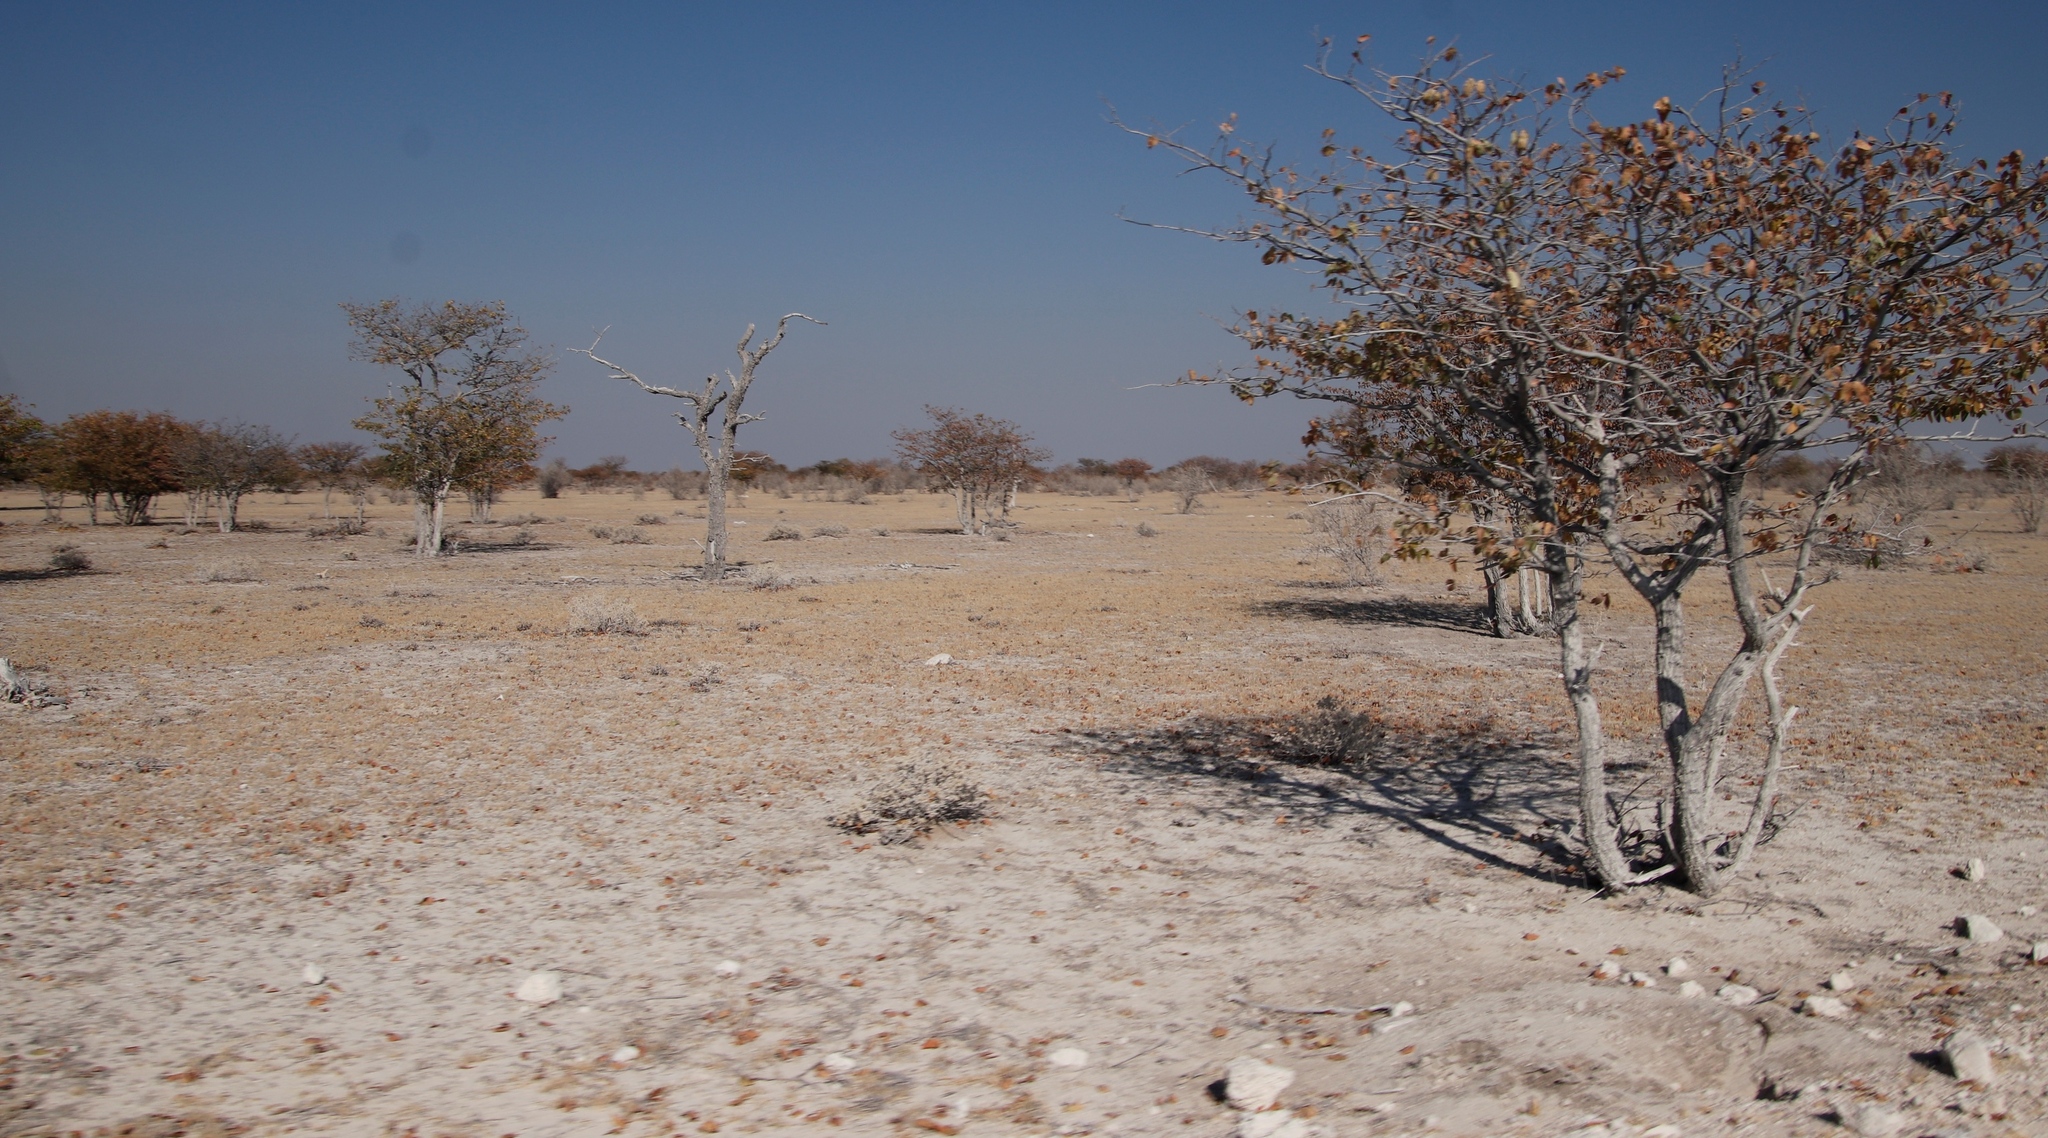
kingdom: Plantae
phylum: Tracheophyta
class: Magnoliopsida
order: Fabales
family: Fabaceae
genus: Colophospermum
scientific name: Colophospermum mopane
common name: Mopane
